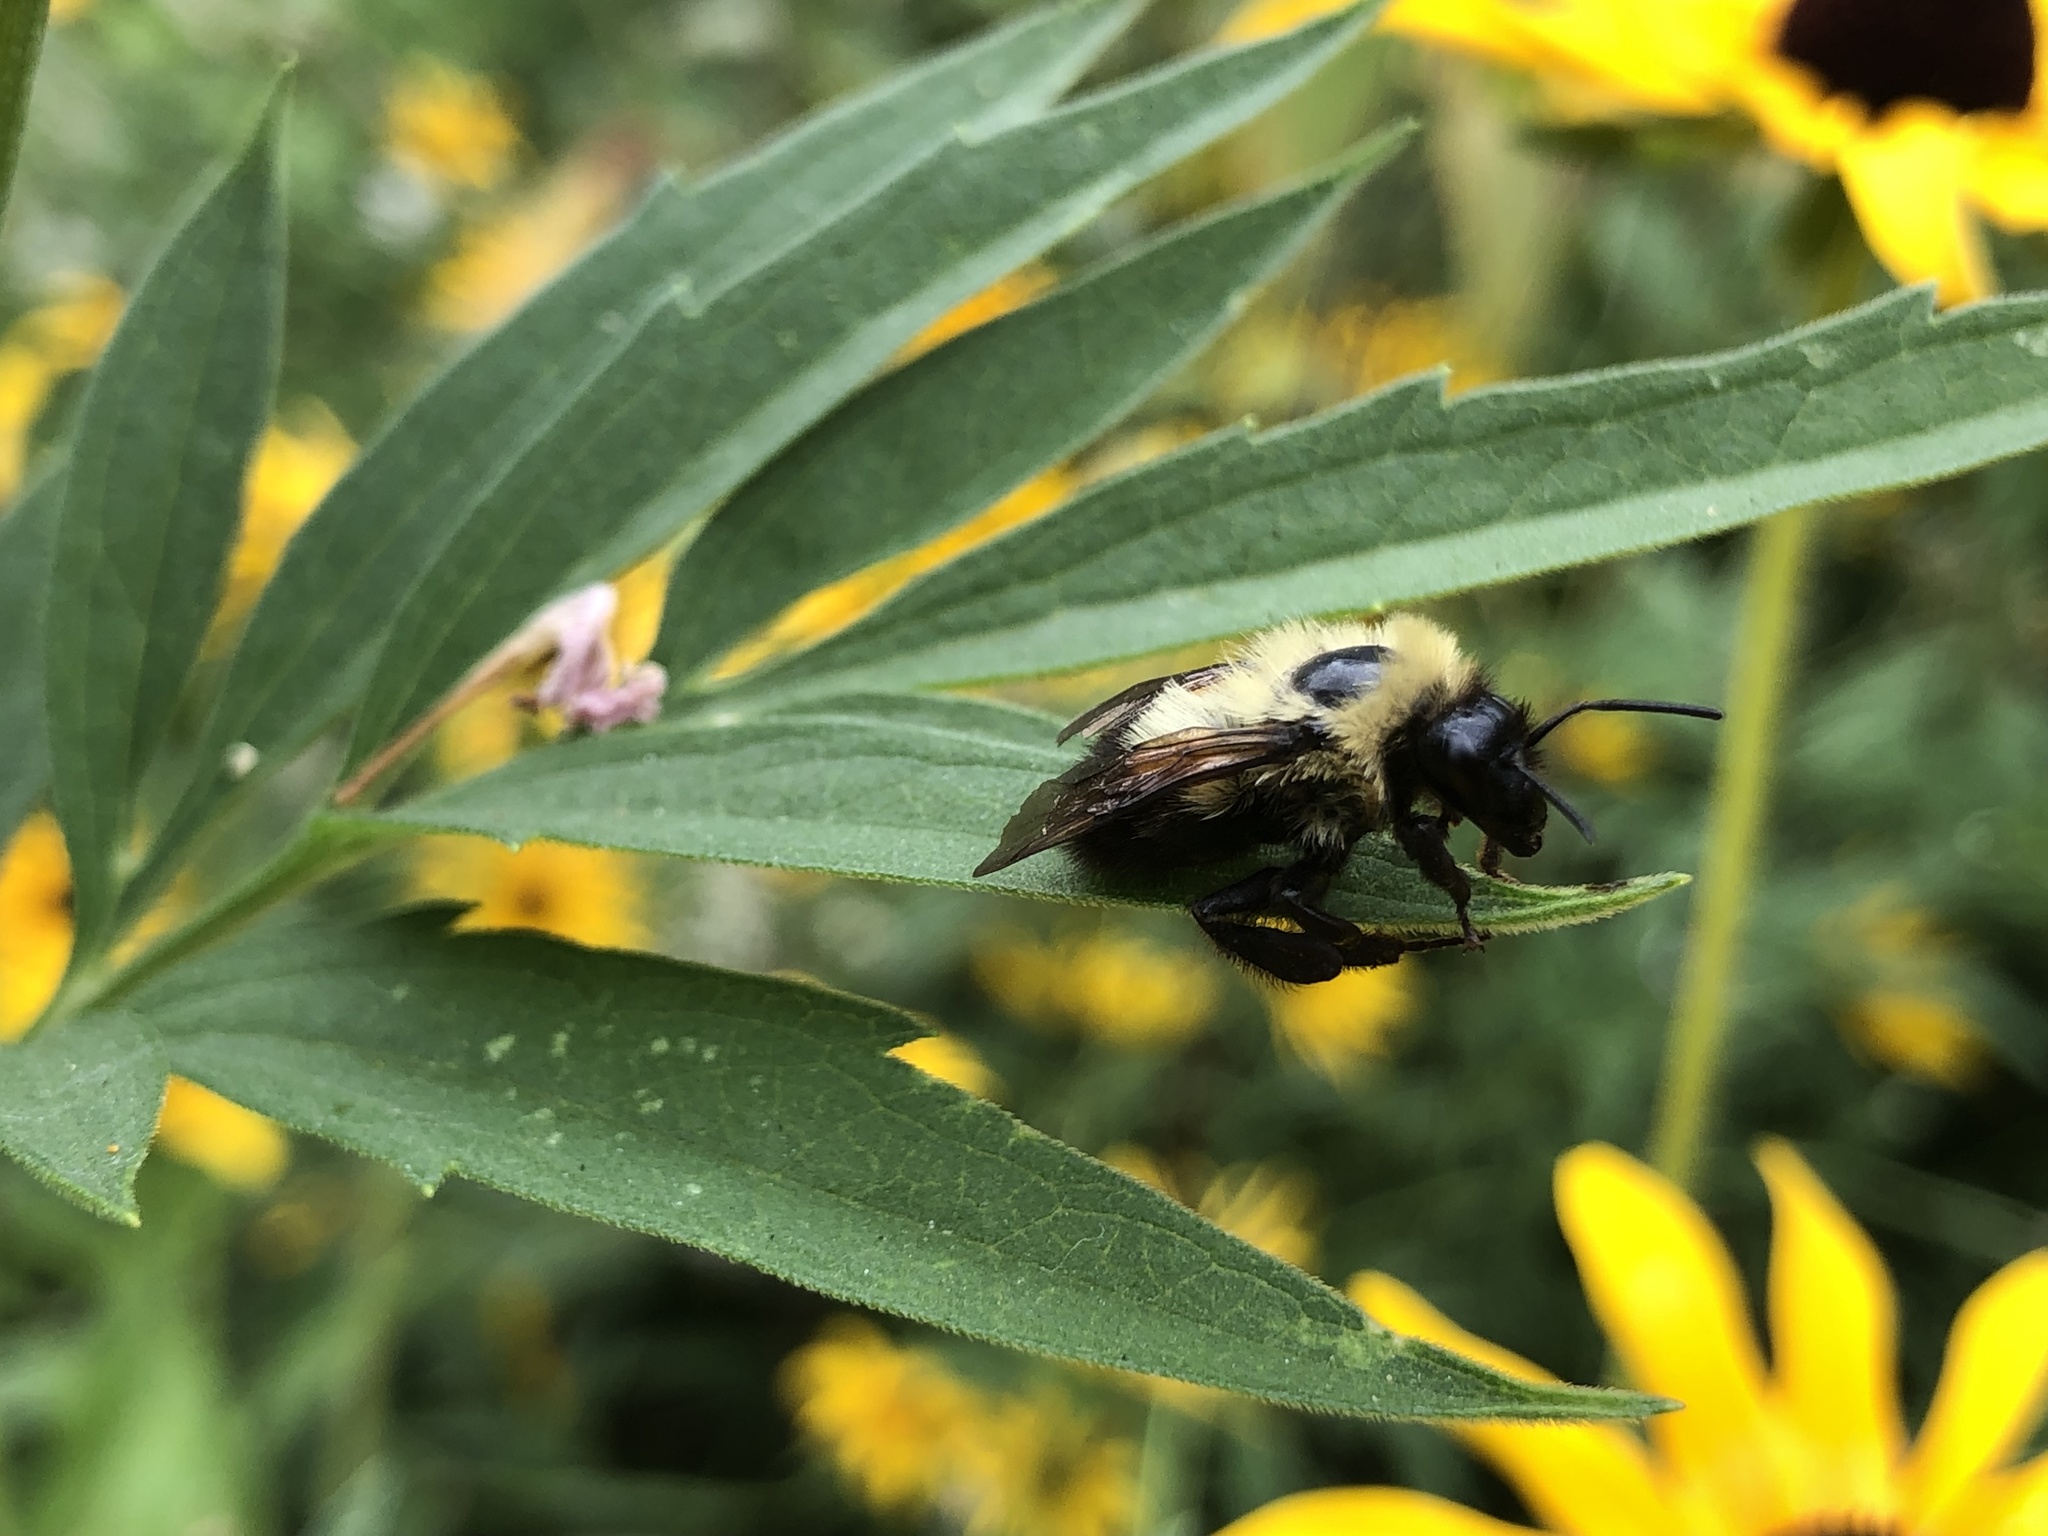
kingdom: Animalia
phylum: Arthropoda
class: Insecta
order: Hymenoptera
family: Apidae
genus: Bombus
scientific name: Bombus bimaculatus
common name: Two-spotted bumble bee
